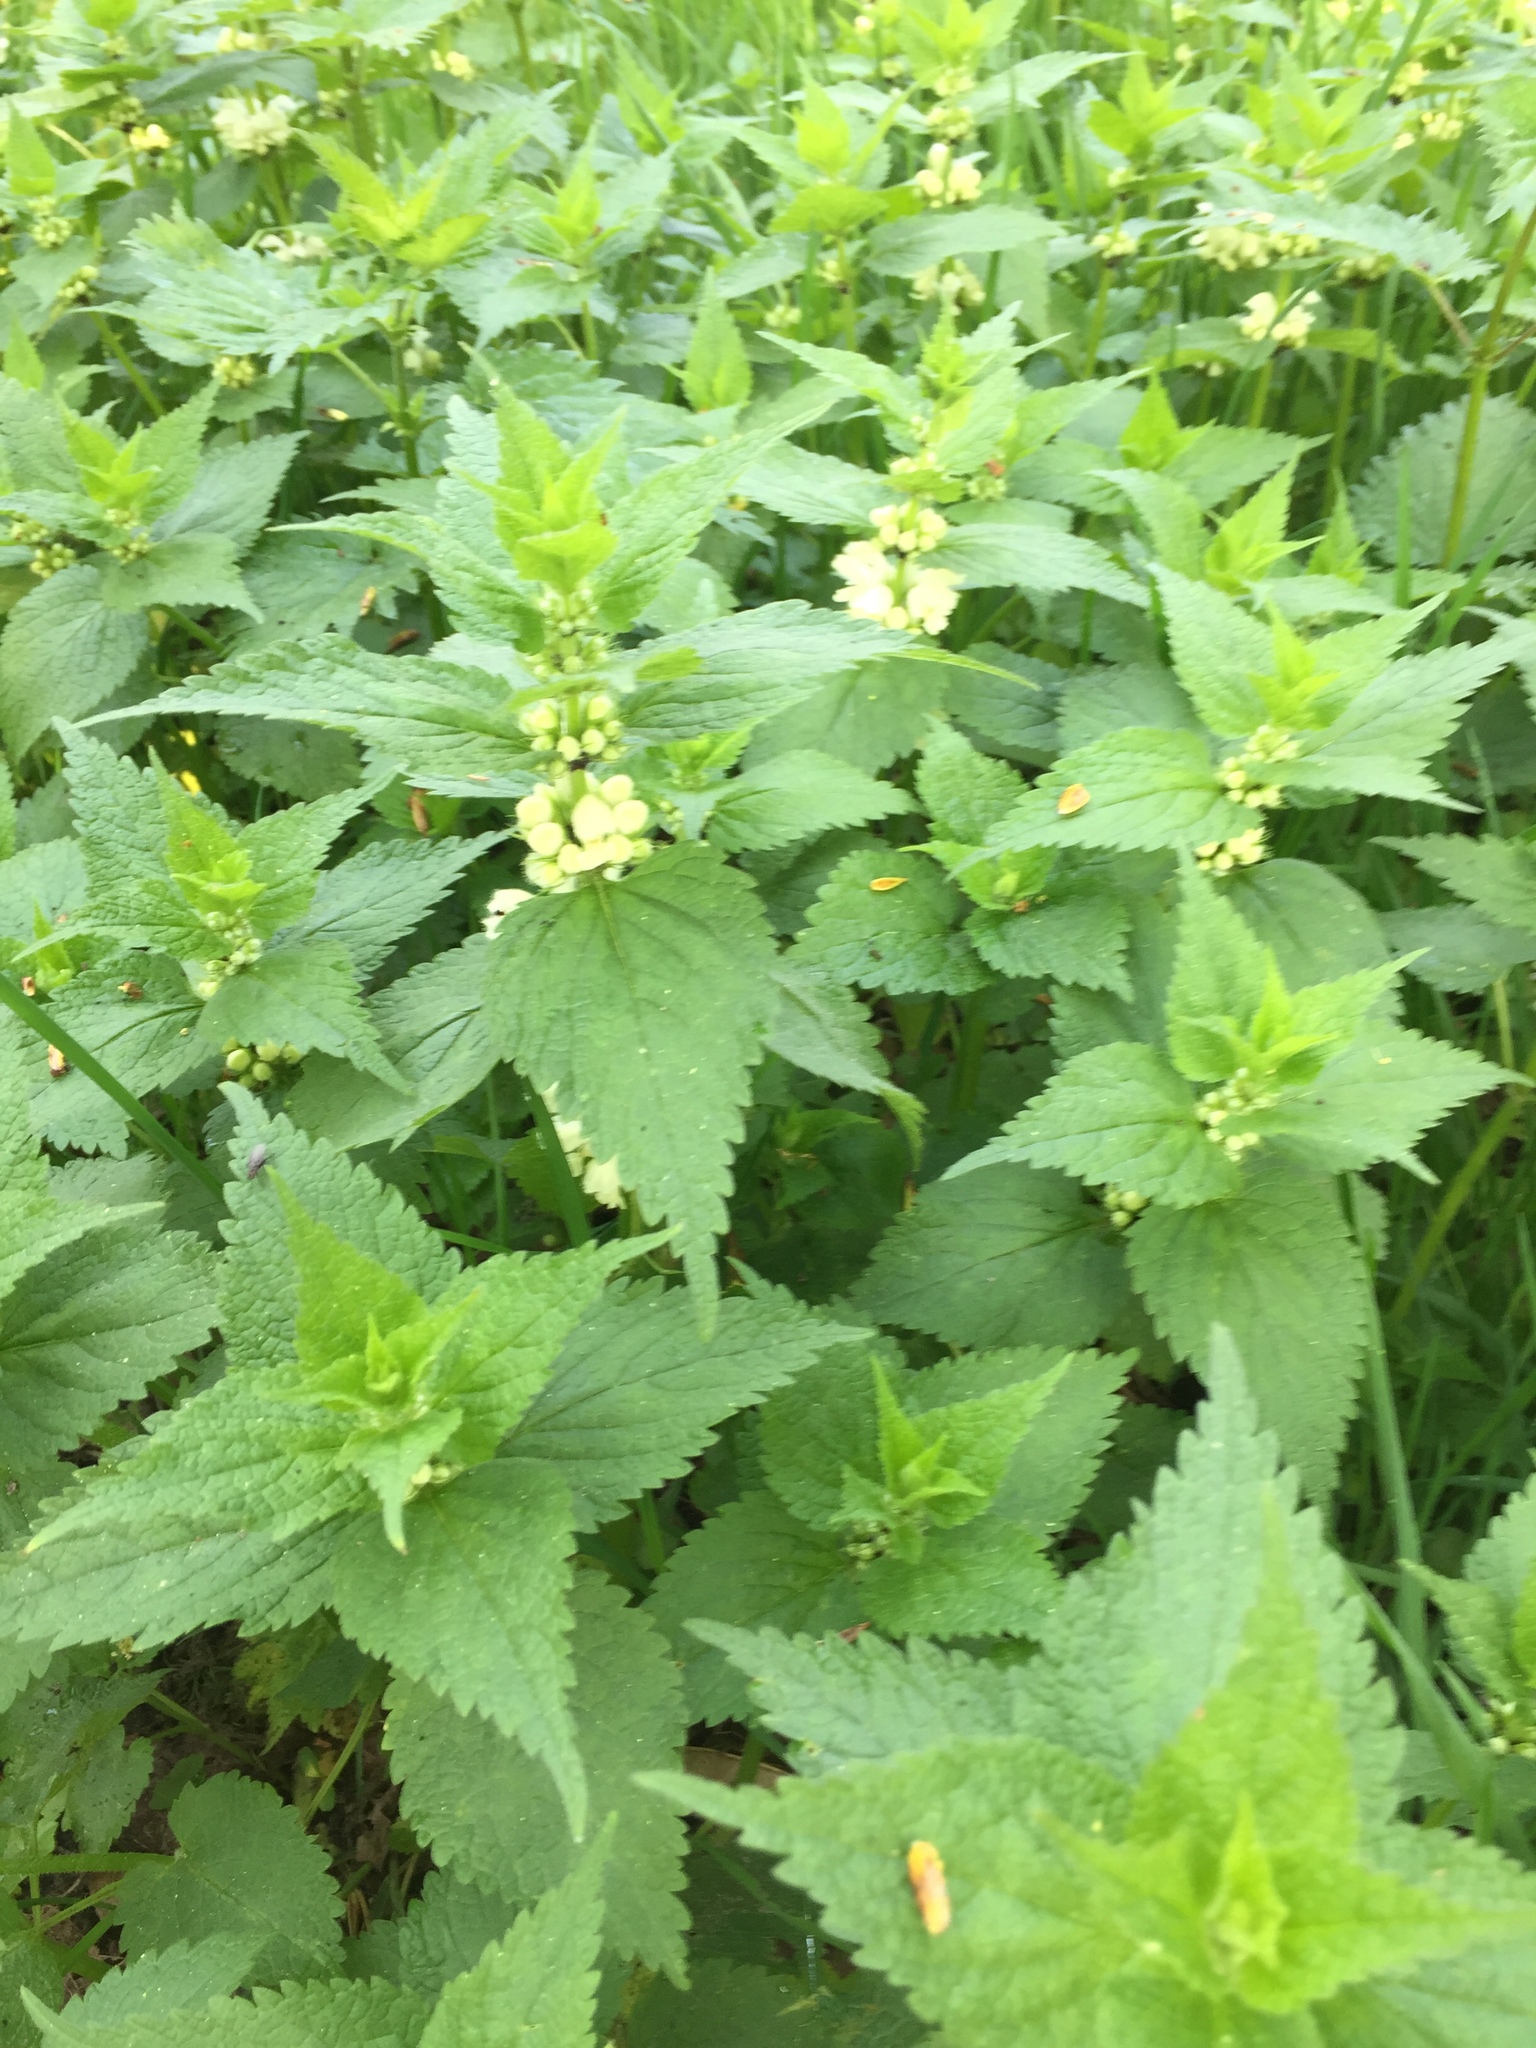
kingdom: Plantae
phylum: Tracheophyta
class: Magnoliopsida
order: Lamiales
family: Lamiaceae
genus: Lamium
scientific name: Lamium album
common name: White dead-nettle
